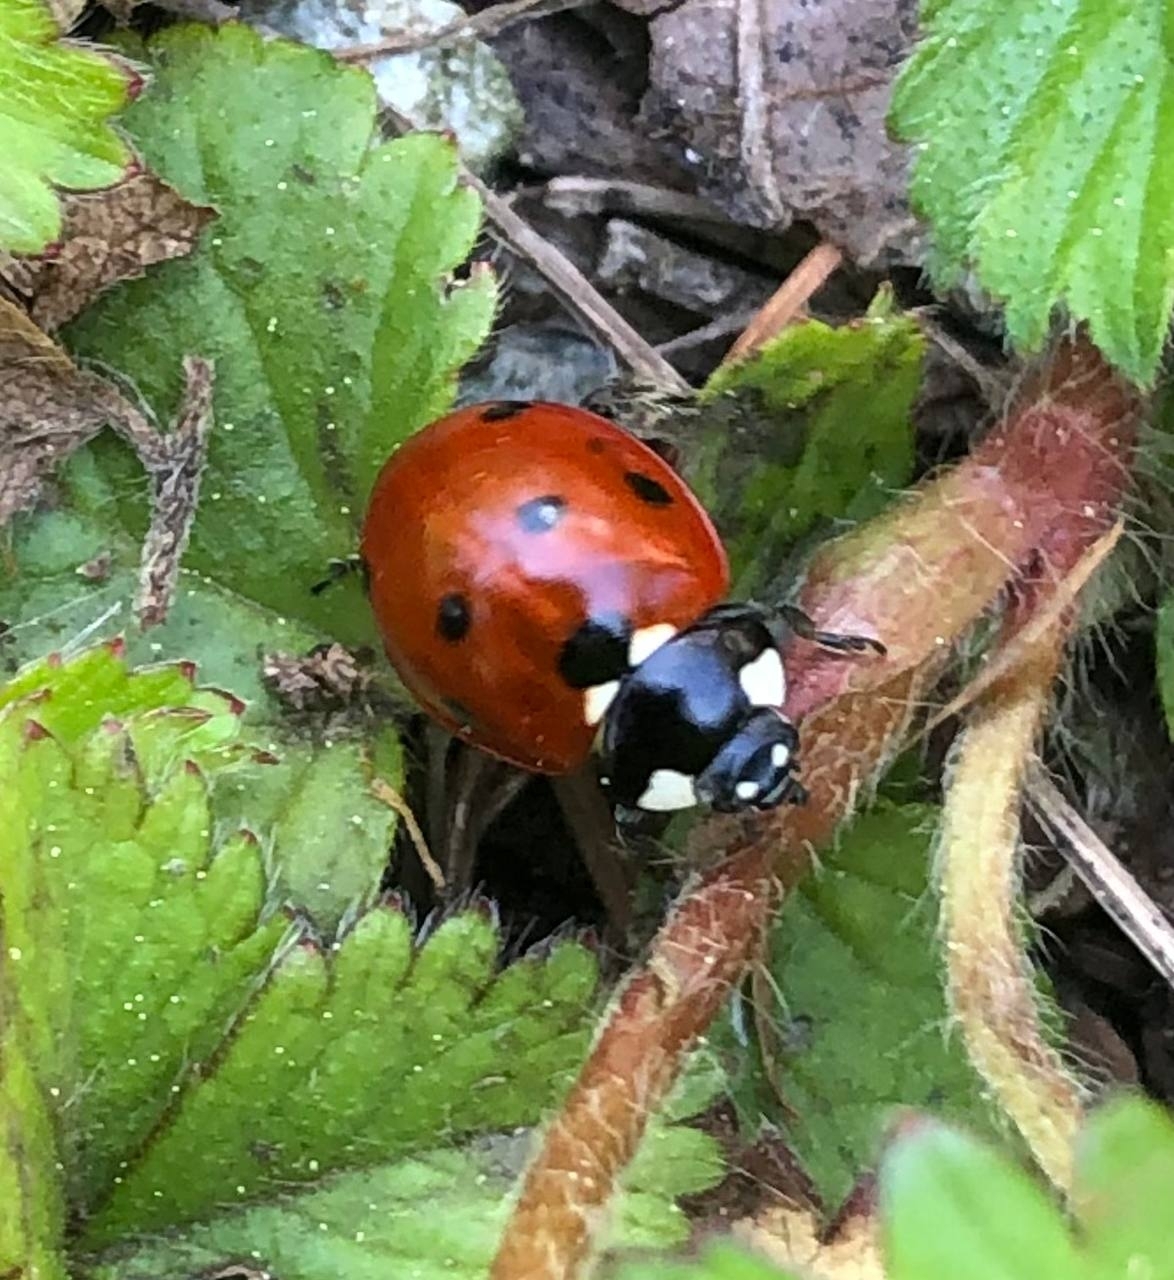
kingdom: Animalia
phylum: Arthropoda
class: Insecta
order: Coleoptera
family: Coccinellidae
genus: Coccinella
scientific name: Coccinella septempunctata
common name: Sevenspotted lady beetle
